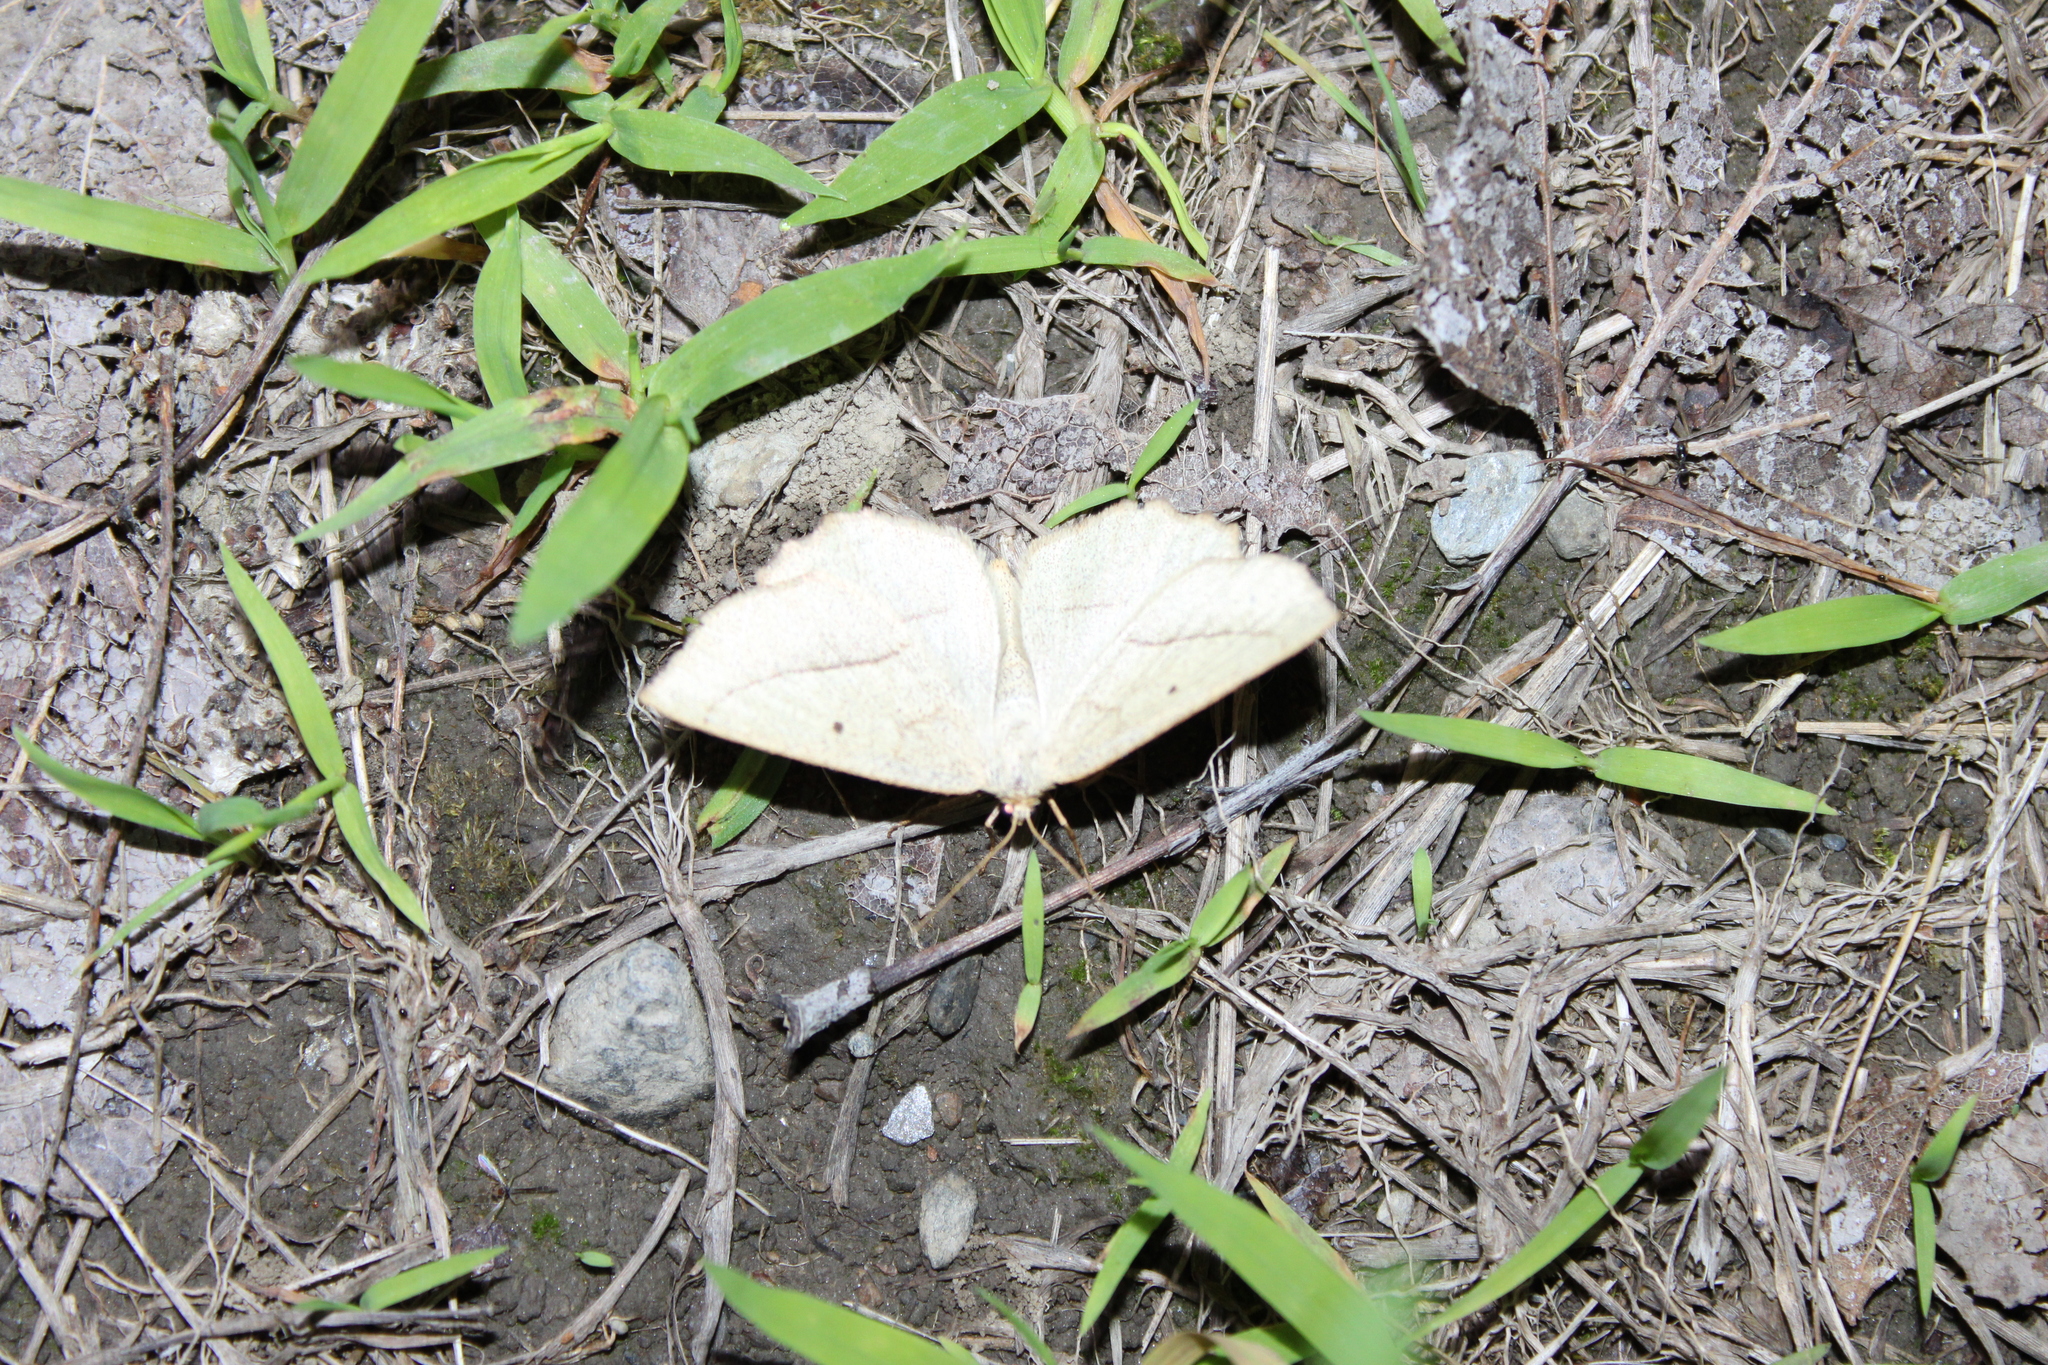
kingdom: Animalia
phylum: Arthropoda
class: Insecta
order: Lepidoptera
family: Geometridae
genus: Eusarca
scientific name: Eusarca confusaria
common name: Confused eusarca
